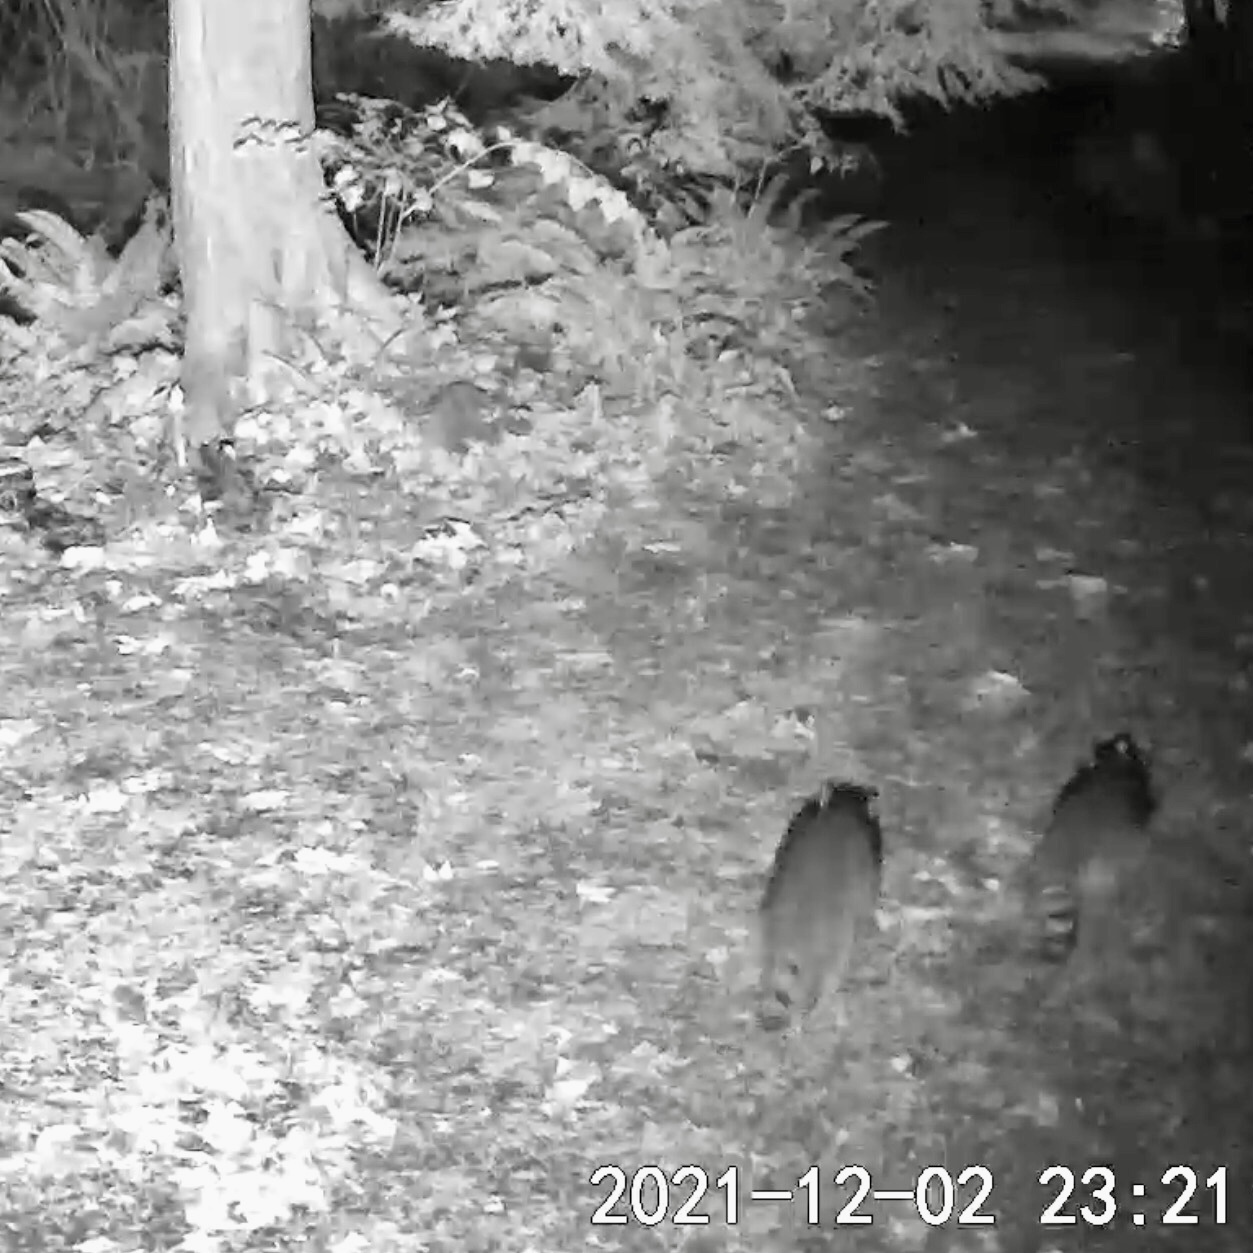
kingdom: Animalia
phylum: Chordata
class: Mammalia
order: Carnivora
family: Procyonidae
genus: Procyon
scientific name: Procyon lotor
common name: Raccoon
